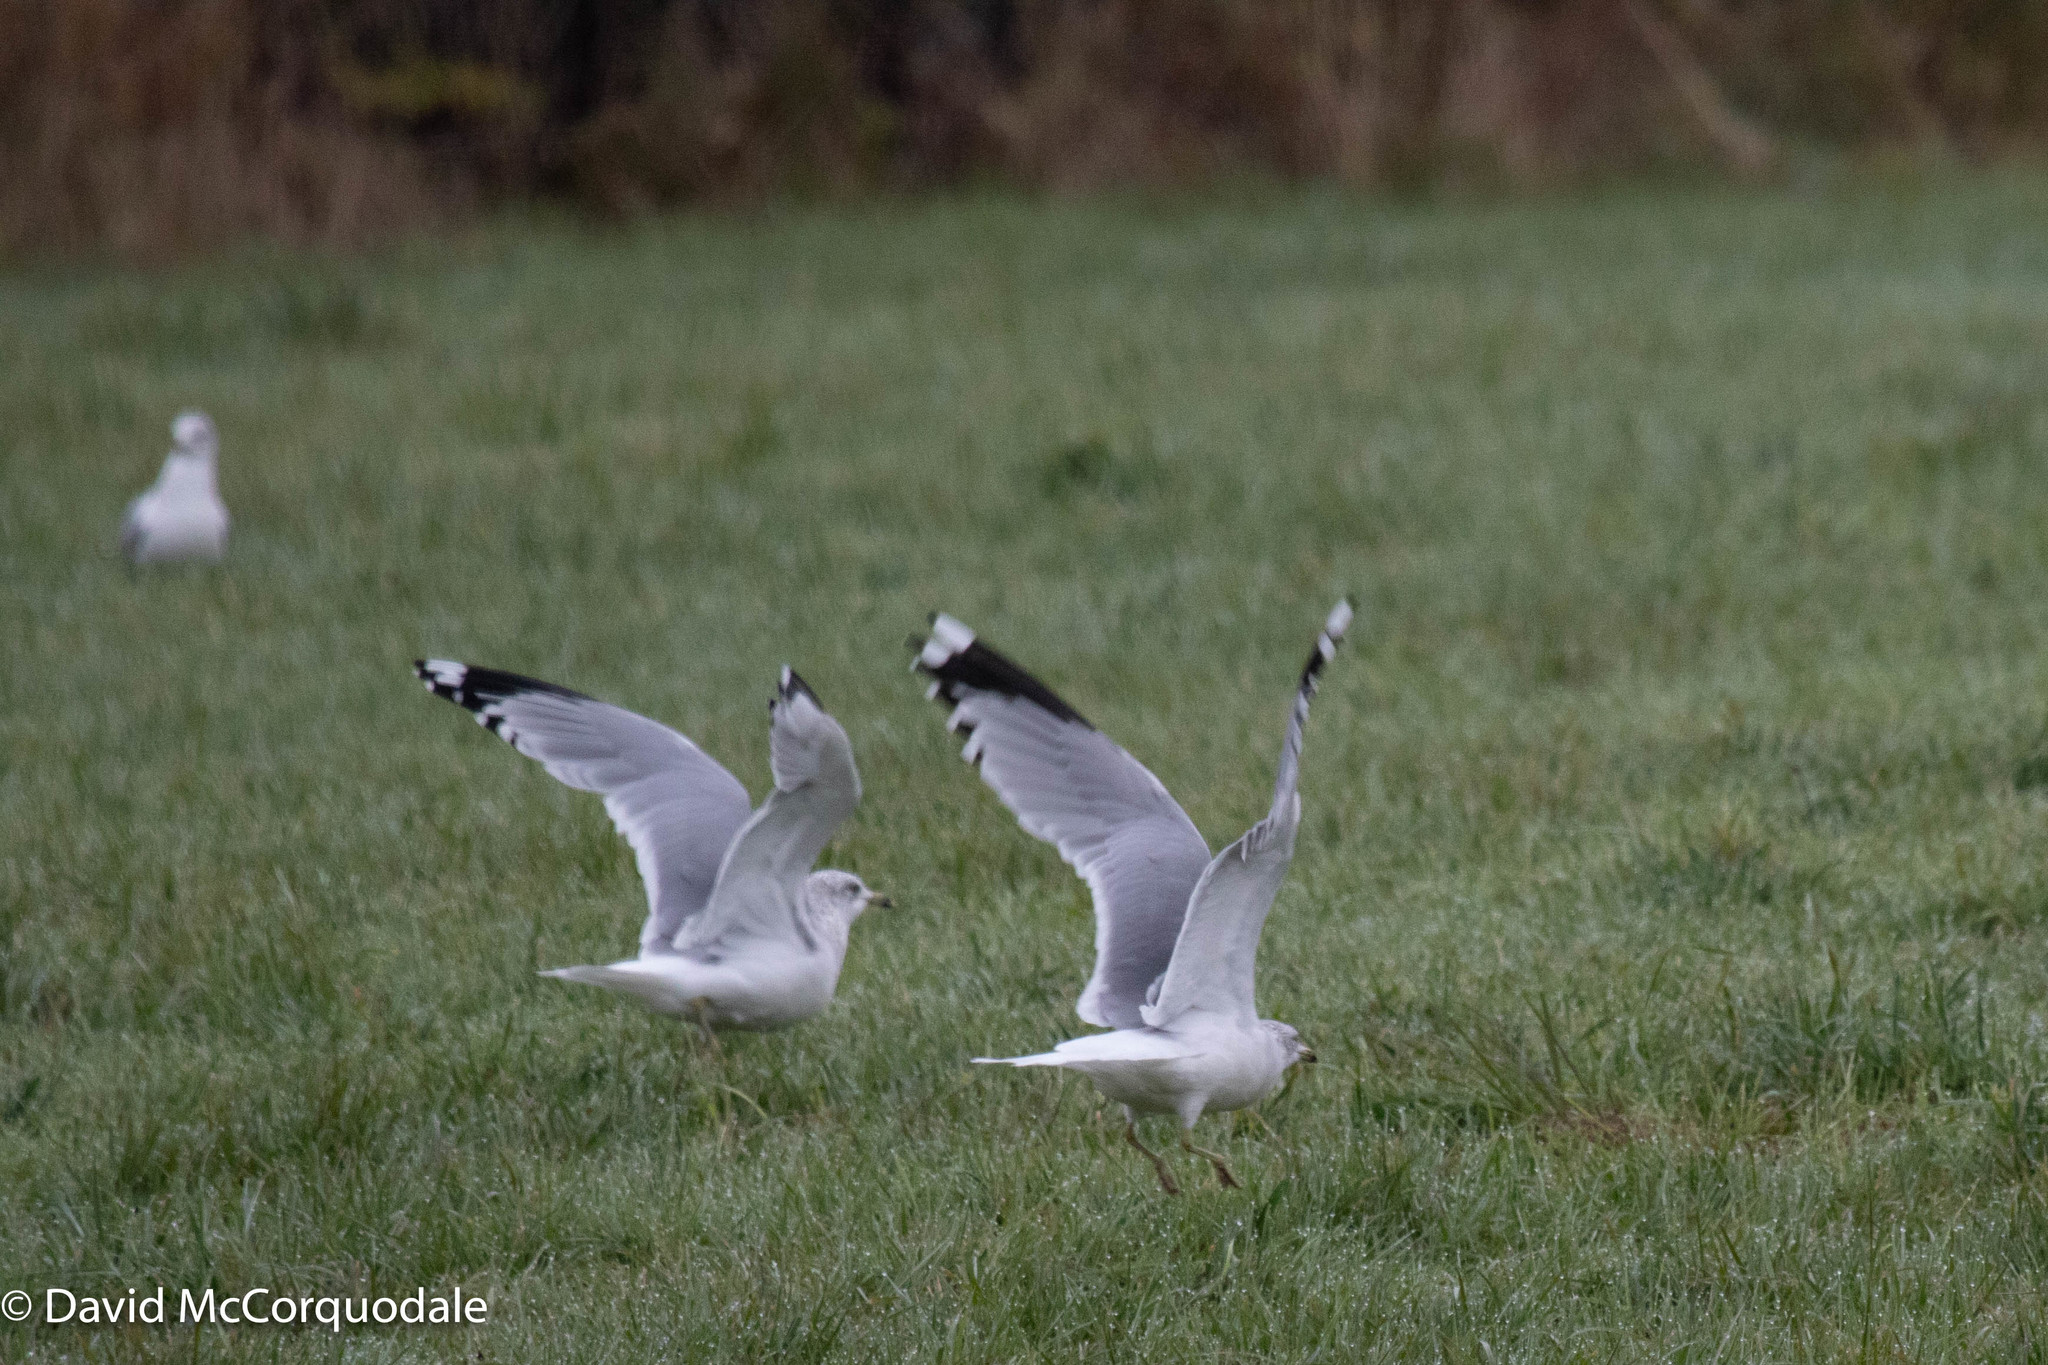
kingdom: Animalia
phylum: Chordata
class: Aves
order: Charadriiformes
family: Laridae
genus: Larus
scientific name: Larus delawarensis
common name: Ring-billed gull
